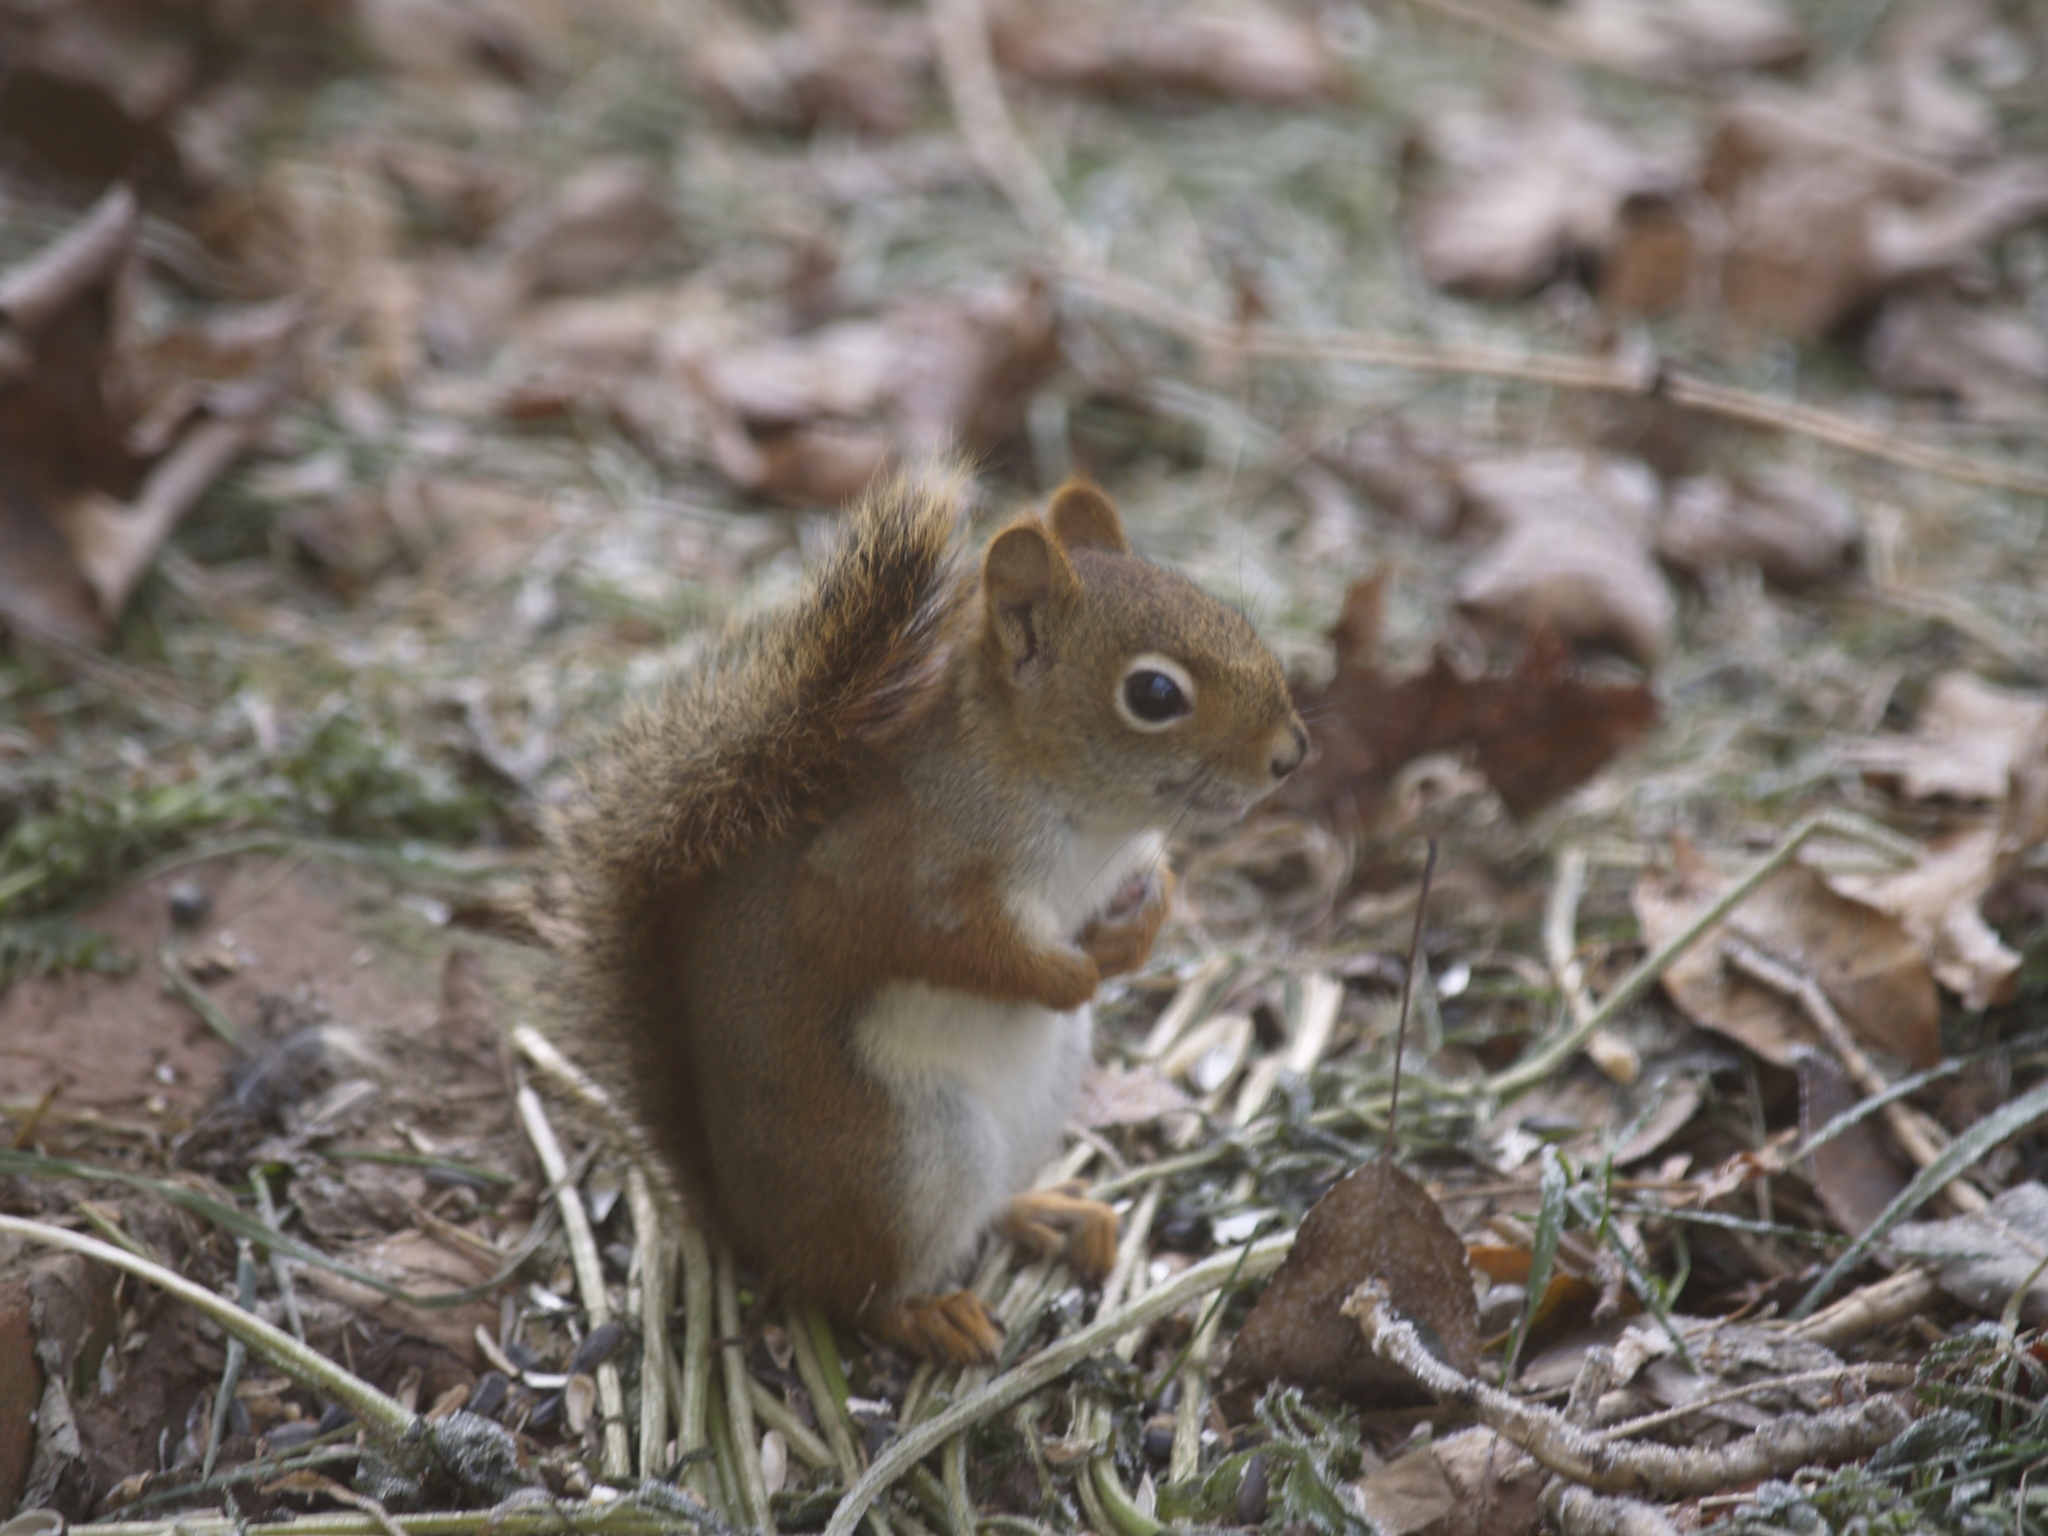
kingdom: Animalia
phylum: Chordata
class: Mammalia
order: Rodentia
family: Sciuridae
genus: Tamiasciurus
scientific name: Tamiasciurus hudsonicus
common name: Red squirrel
